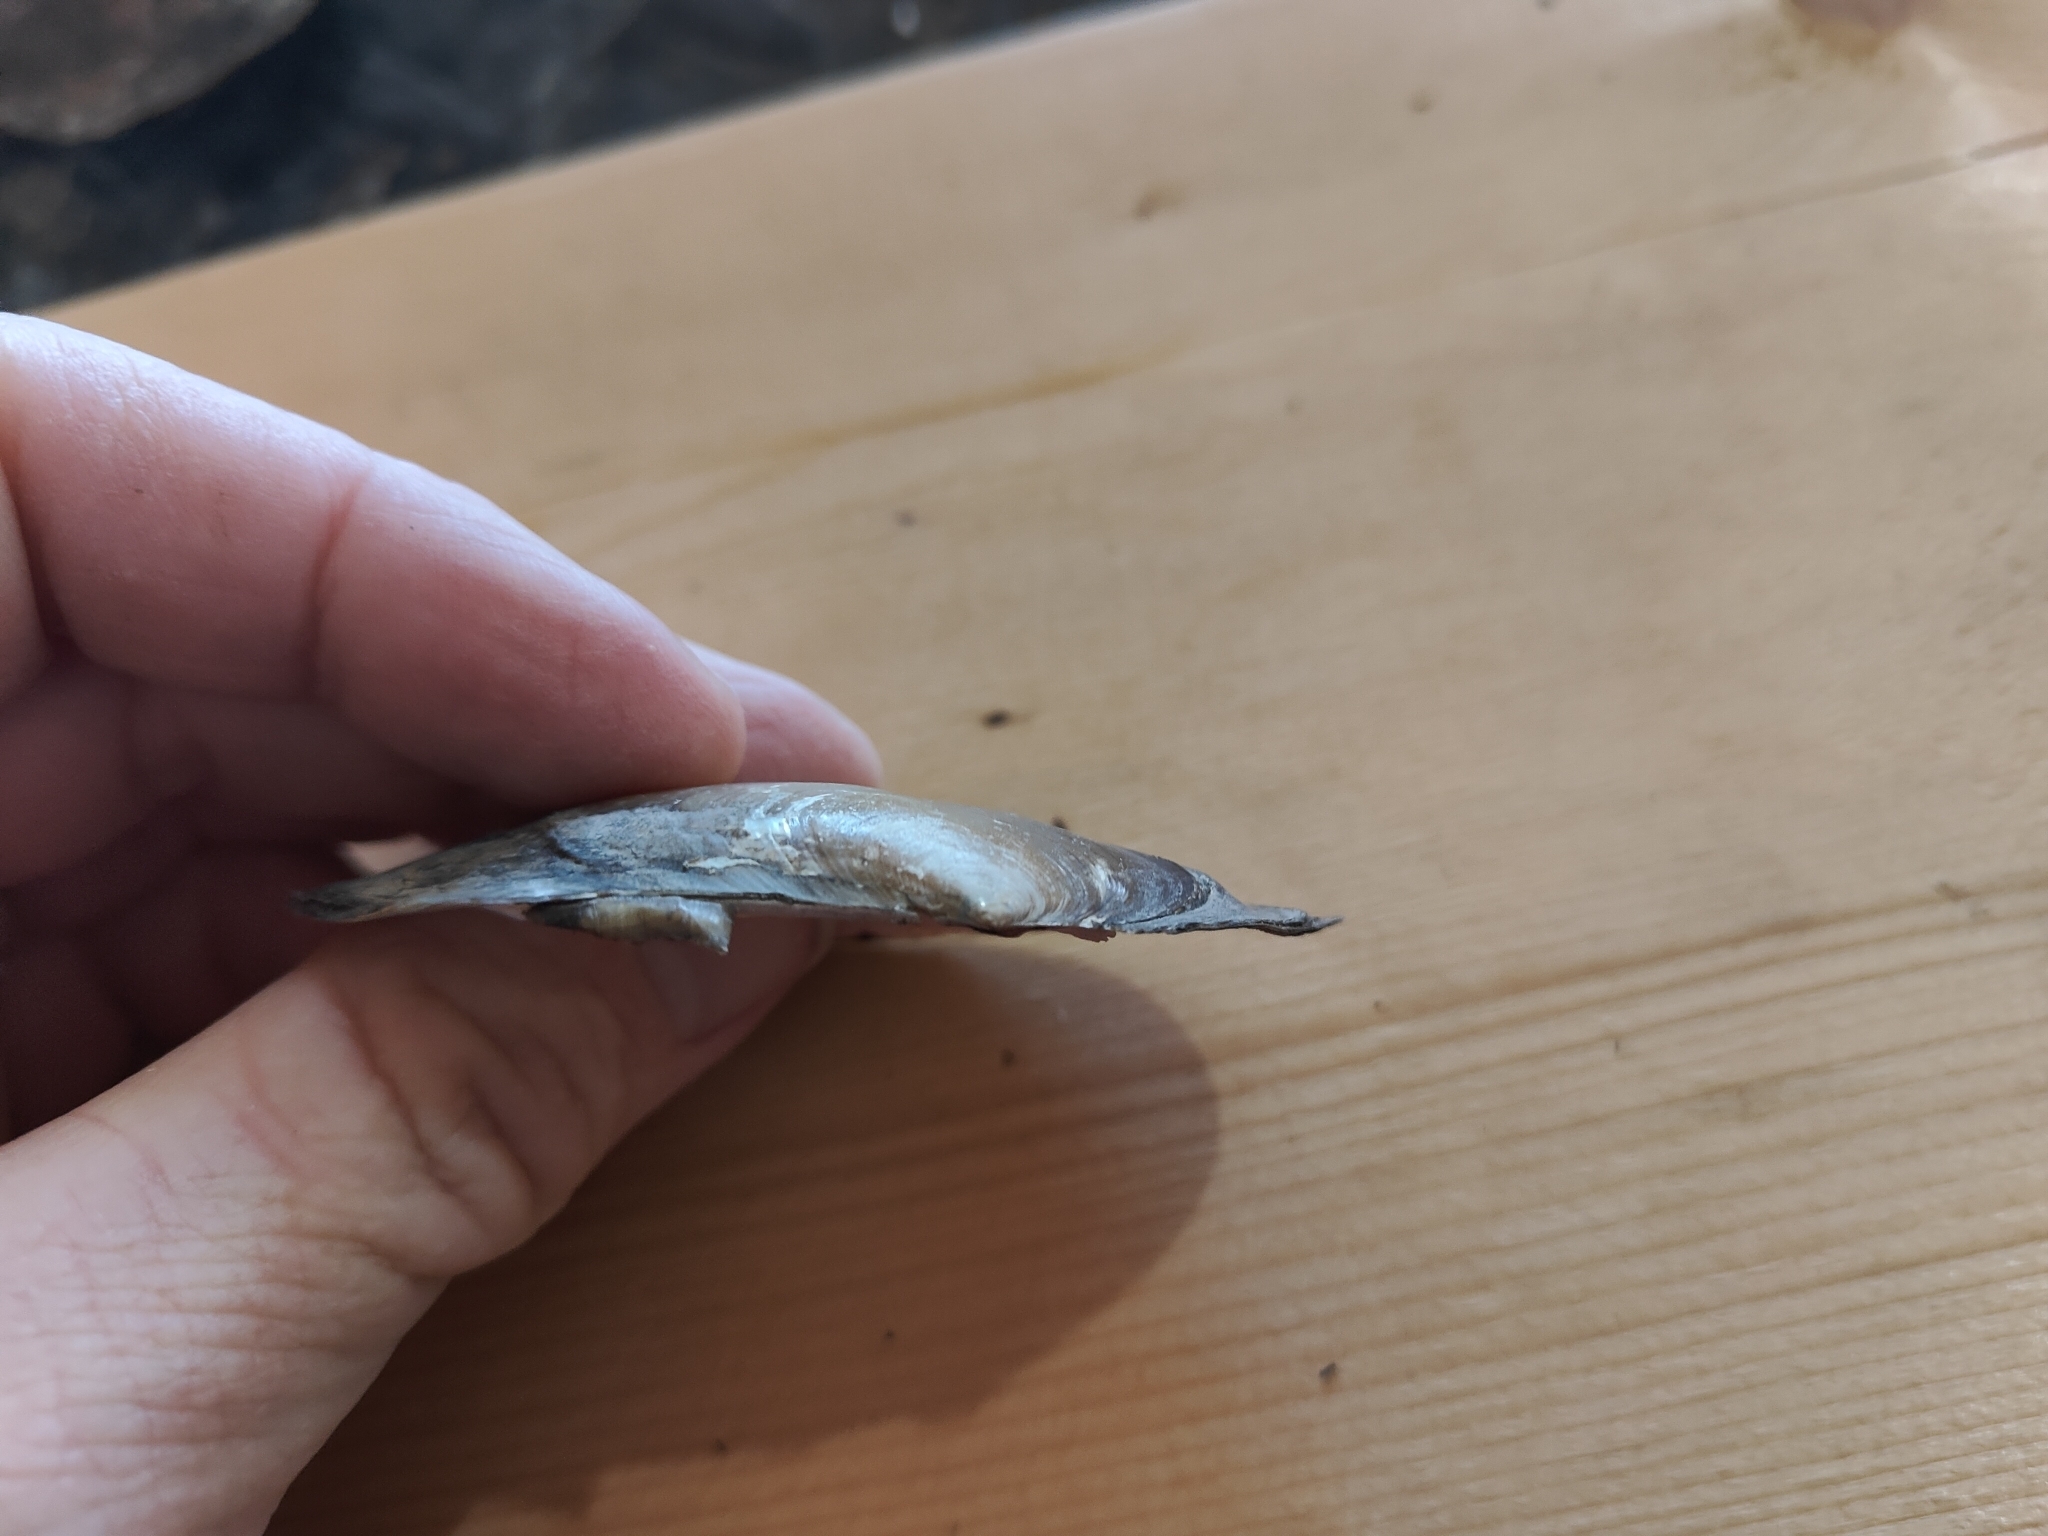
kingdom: Animalia
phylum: Mollusca
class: Bivalvia
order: Unionida
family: Unionidae
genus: Potamilus
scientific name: Potamilus ohiensis
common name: Pink papershell
